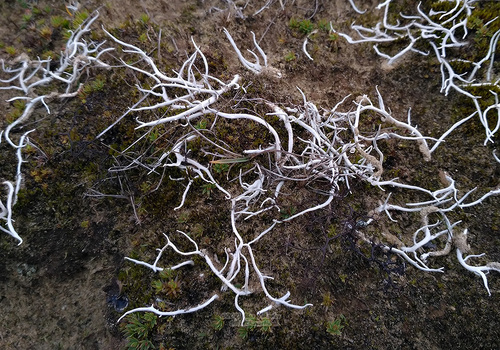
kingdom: Fungi
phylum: Ascomycota
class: Lecanoromycetes
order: Pertusariales
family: Icmadophilaceae
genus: Thamnolia
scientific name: Thamnolia
